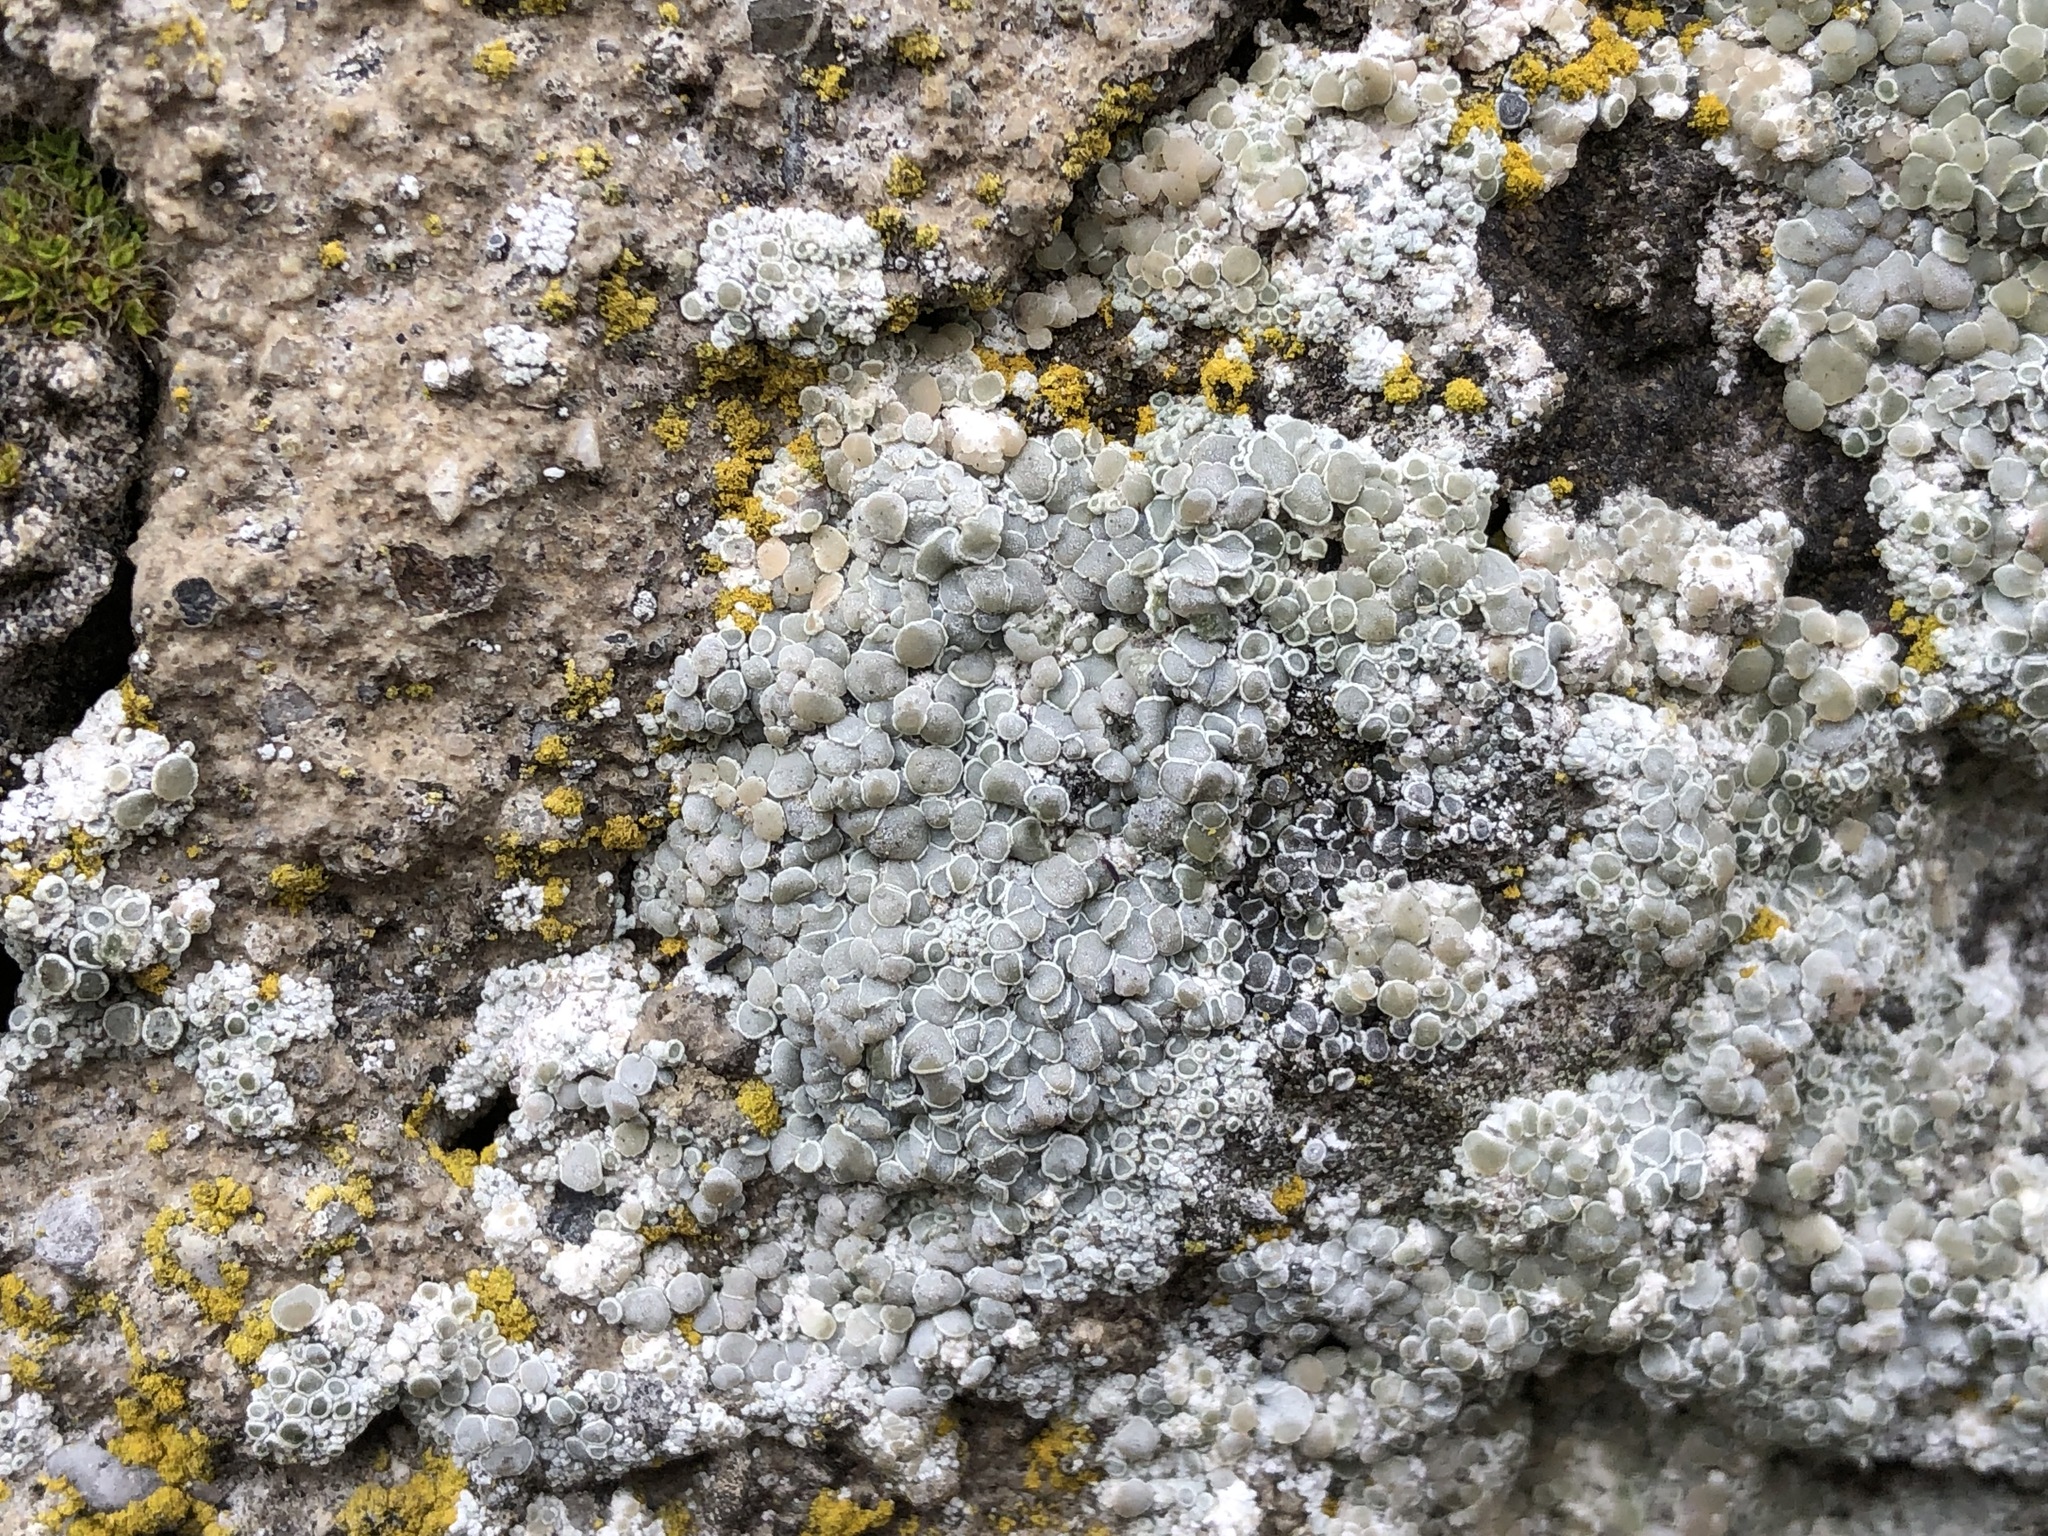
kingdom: Fungi
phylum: Ascomycota
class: Lecanoromycetes
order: Lecanorales
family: Lecanoraceae
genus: Polyozosia
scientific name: Polyozosia albescens
